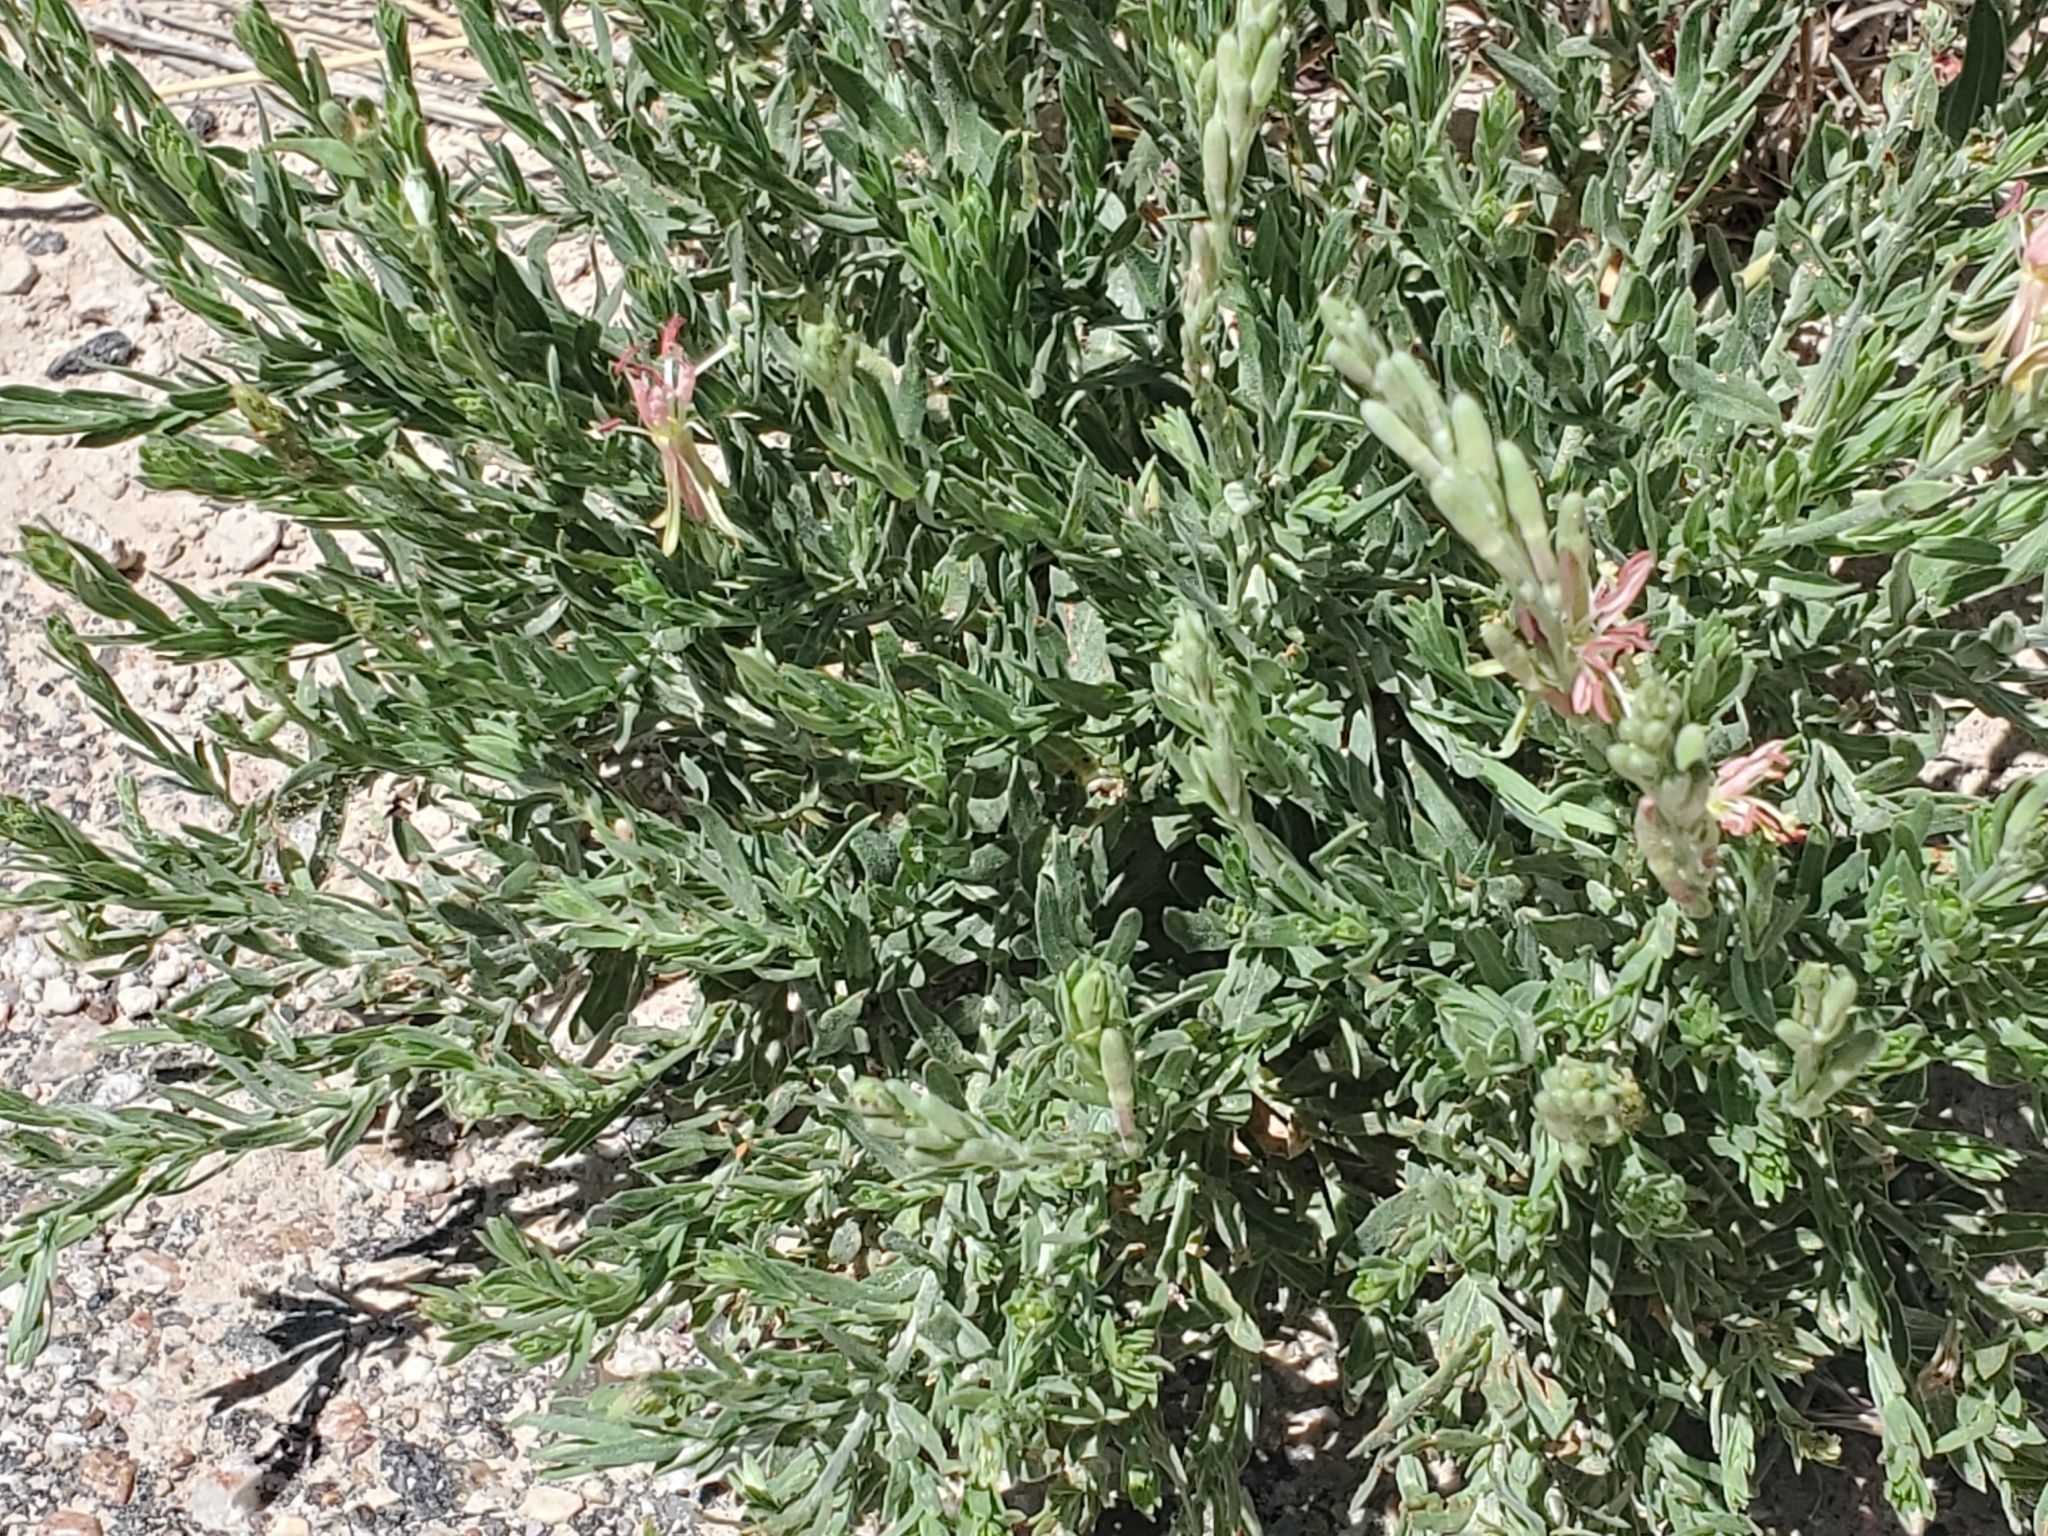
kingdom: Plantae
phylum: Tracheophyta
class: Magnoliopsida
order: Myrtales
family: Onagraceae
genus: Oenothera
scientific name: Oenothera suffrutescens
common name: Scarlet beeblossom
